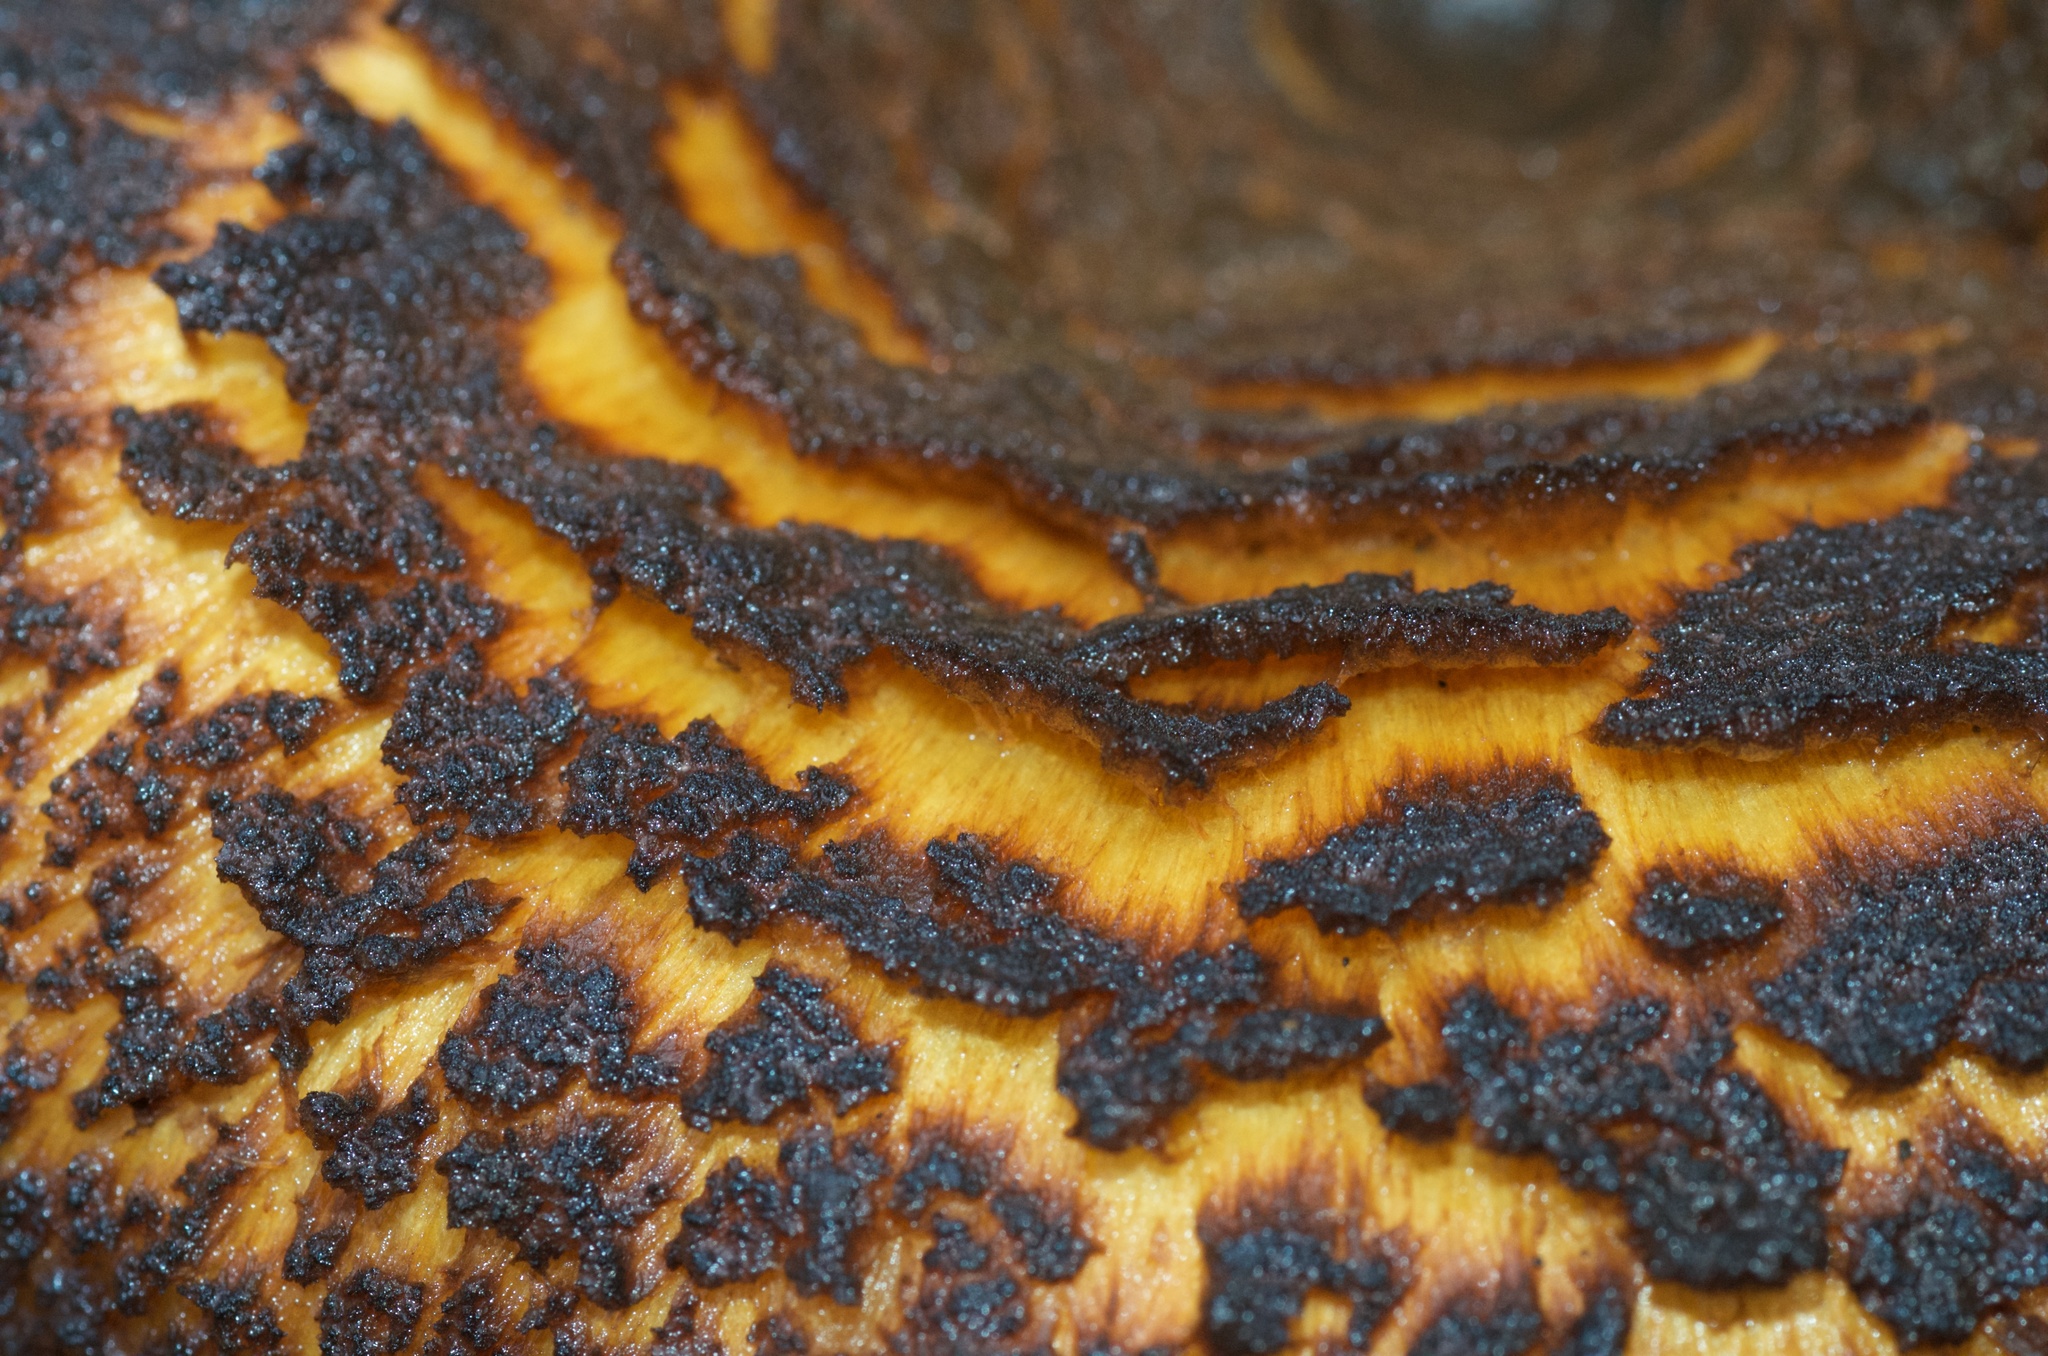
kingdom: Fungi
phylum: Basidiomycota
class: Agaricomycetes
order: Boletales
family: Serpulaceae
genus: Austropaxillus
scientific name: Austropaxillus squarrosus
